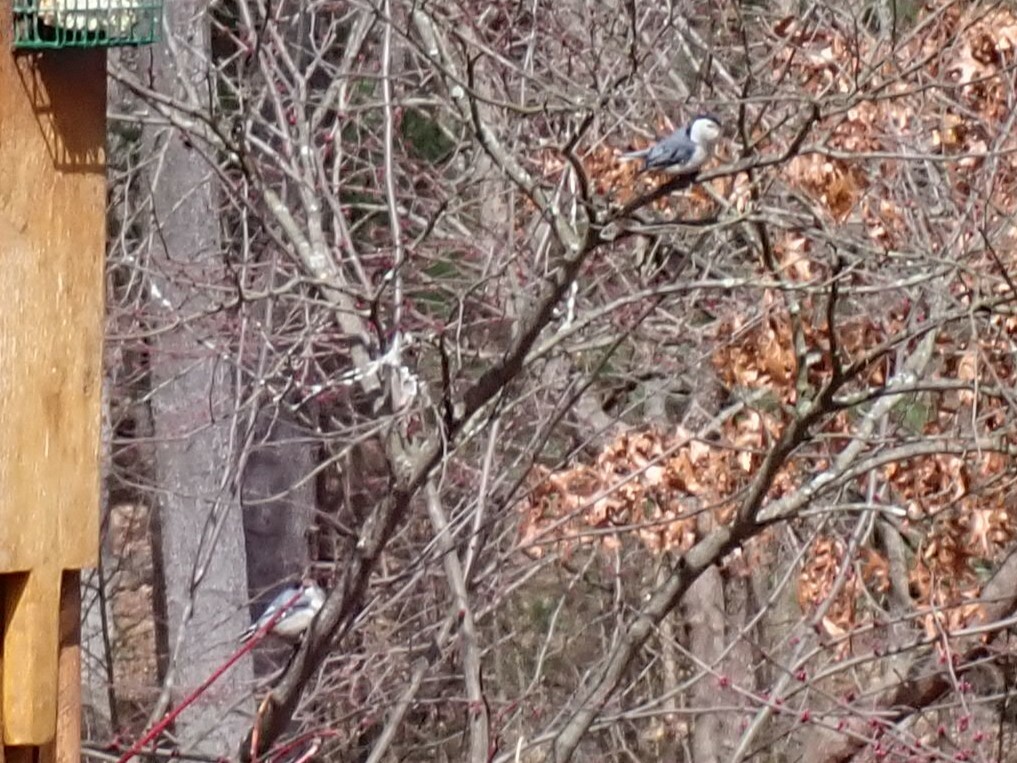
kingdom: Animalia
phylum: Chordata
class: Aves
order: Passeriformes
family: Sittidae
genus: Sitta
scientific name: Sitta carolinensis
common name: White-breasted nuthatch
